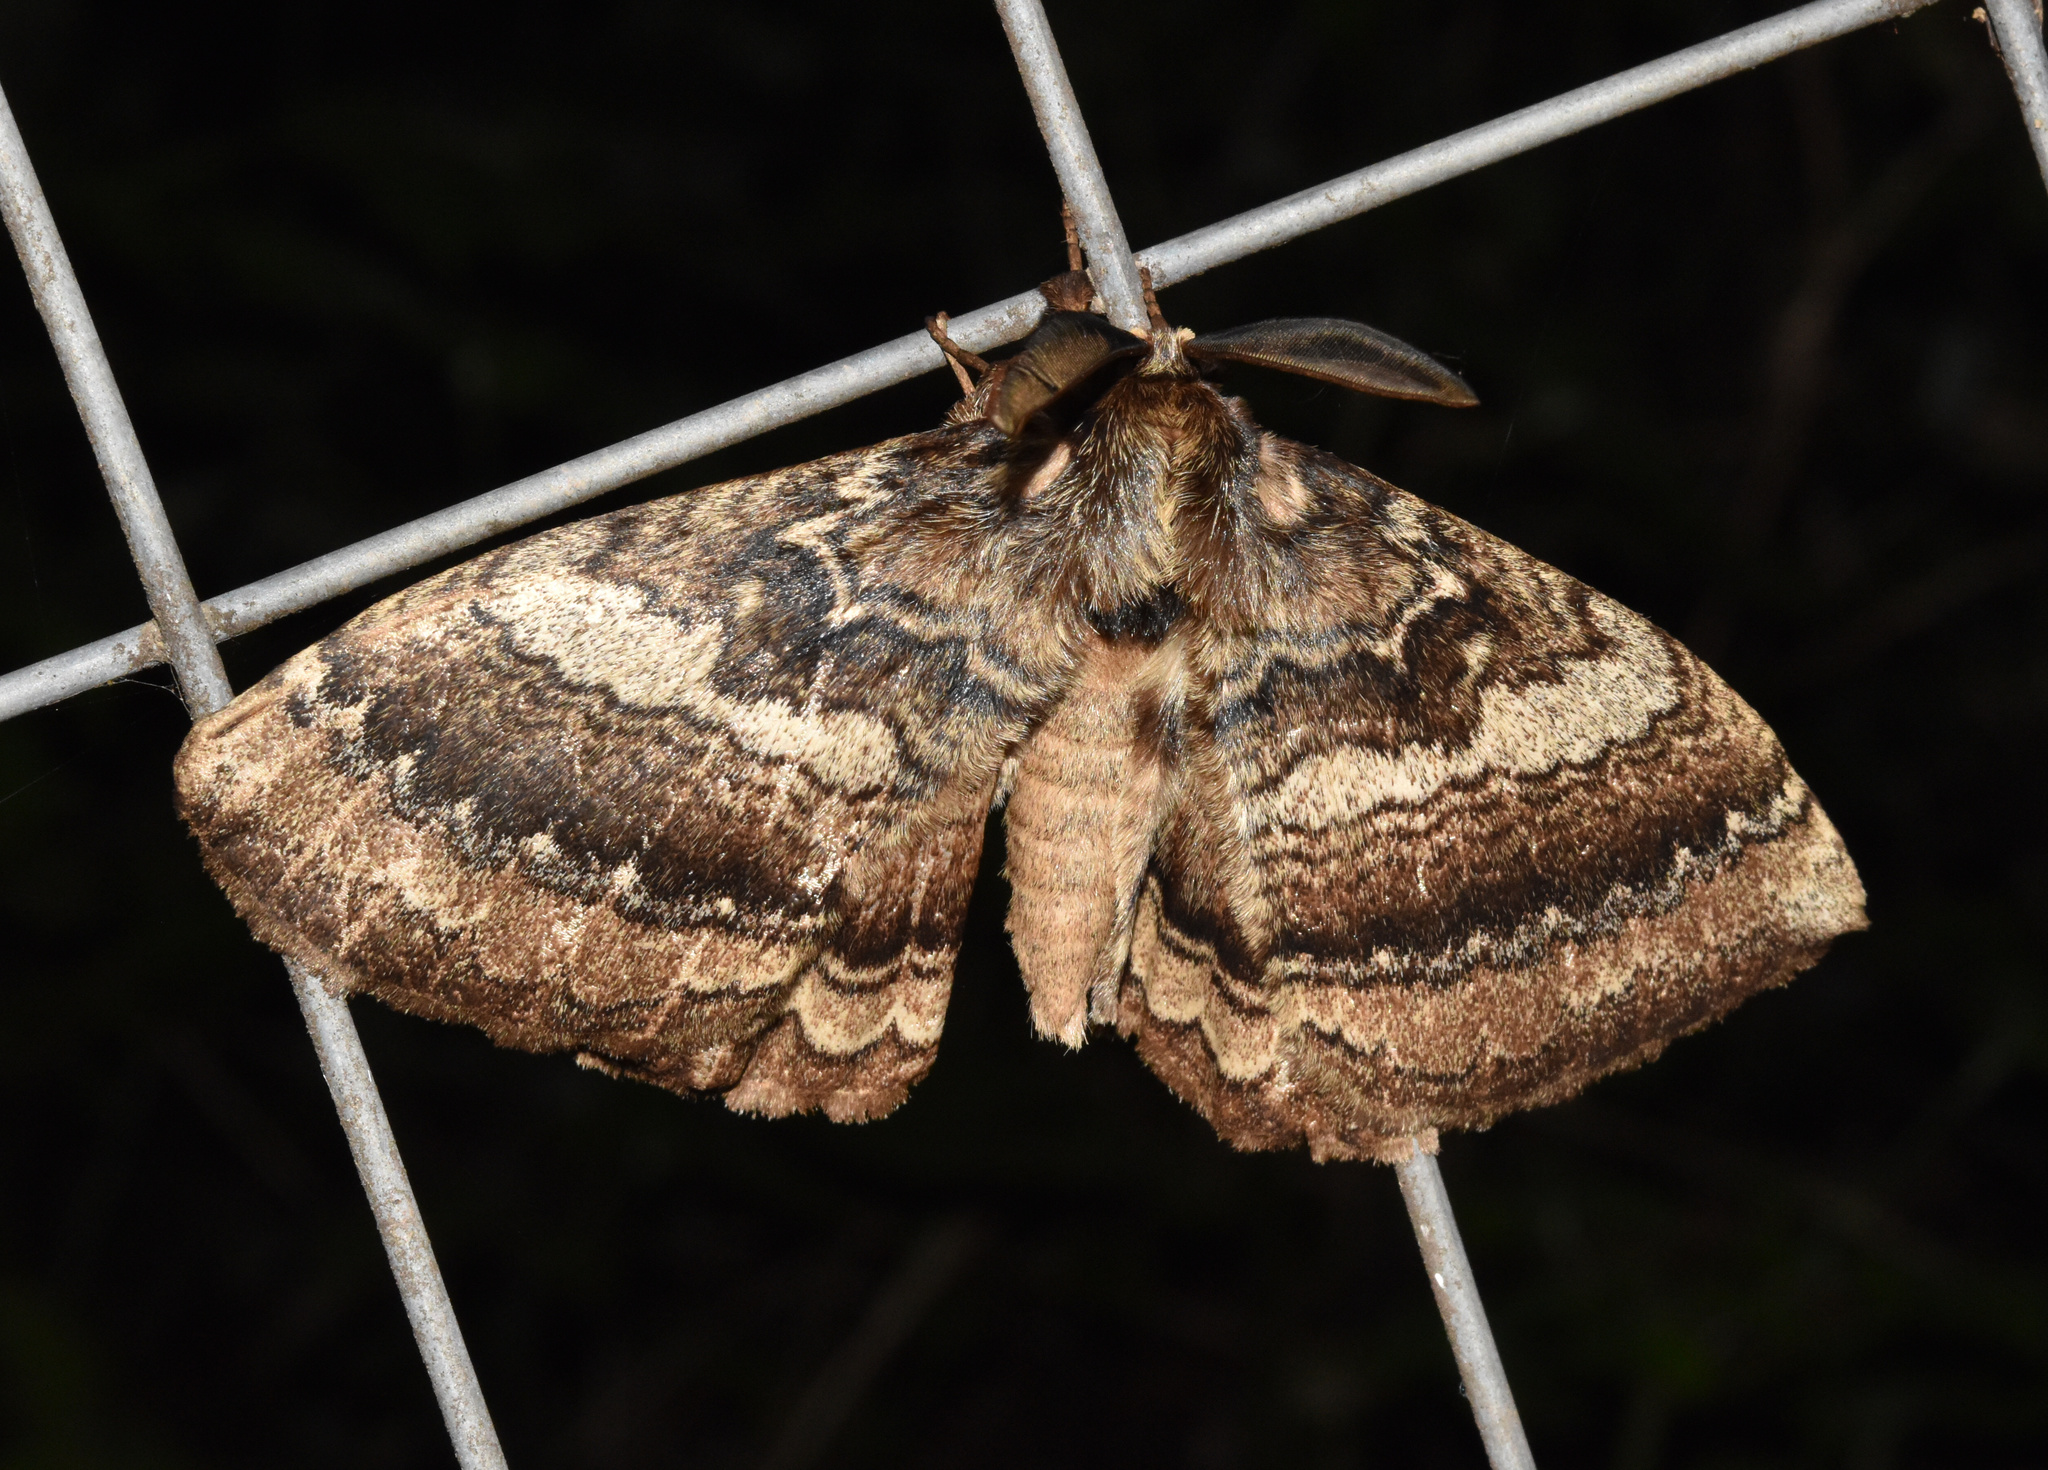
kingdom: Animalia
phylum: Arthropoda
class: Insecta
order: Lepidoptera
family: Eupterotidae
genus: Striphnopteryx
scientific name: Striphnopteryx edulis
